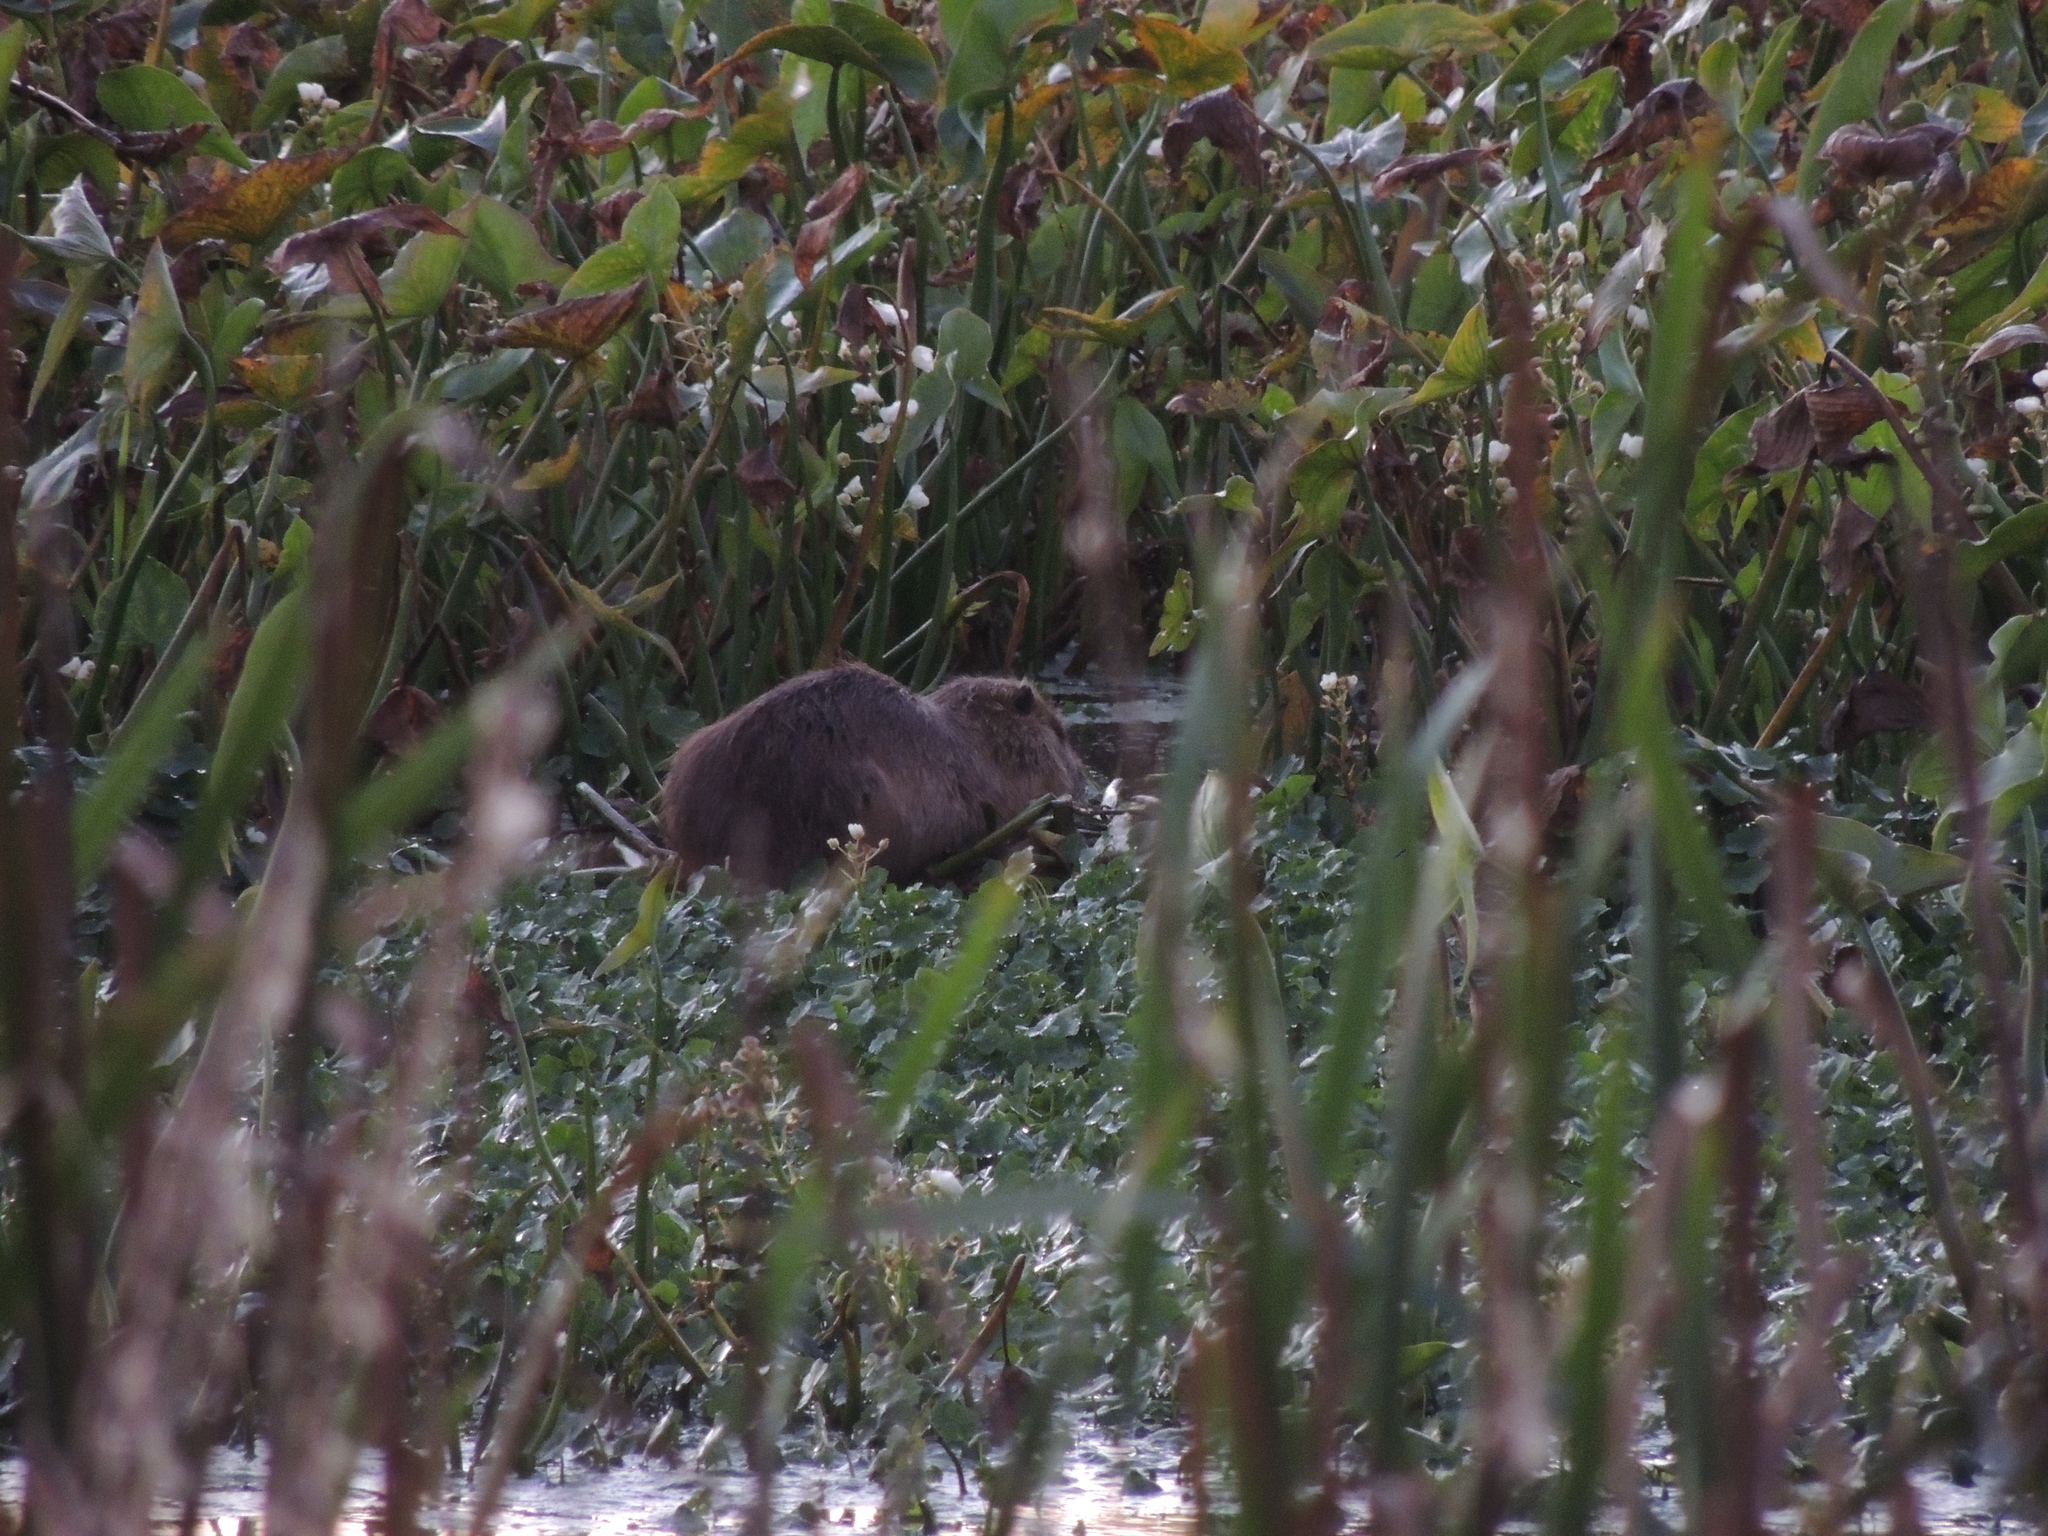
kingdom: Animalia
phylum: Chordata
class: Mammalia
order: Rodentia
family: Myocastoridae
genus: Myocastor
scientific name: Myocastor coypus
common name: Coypu
